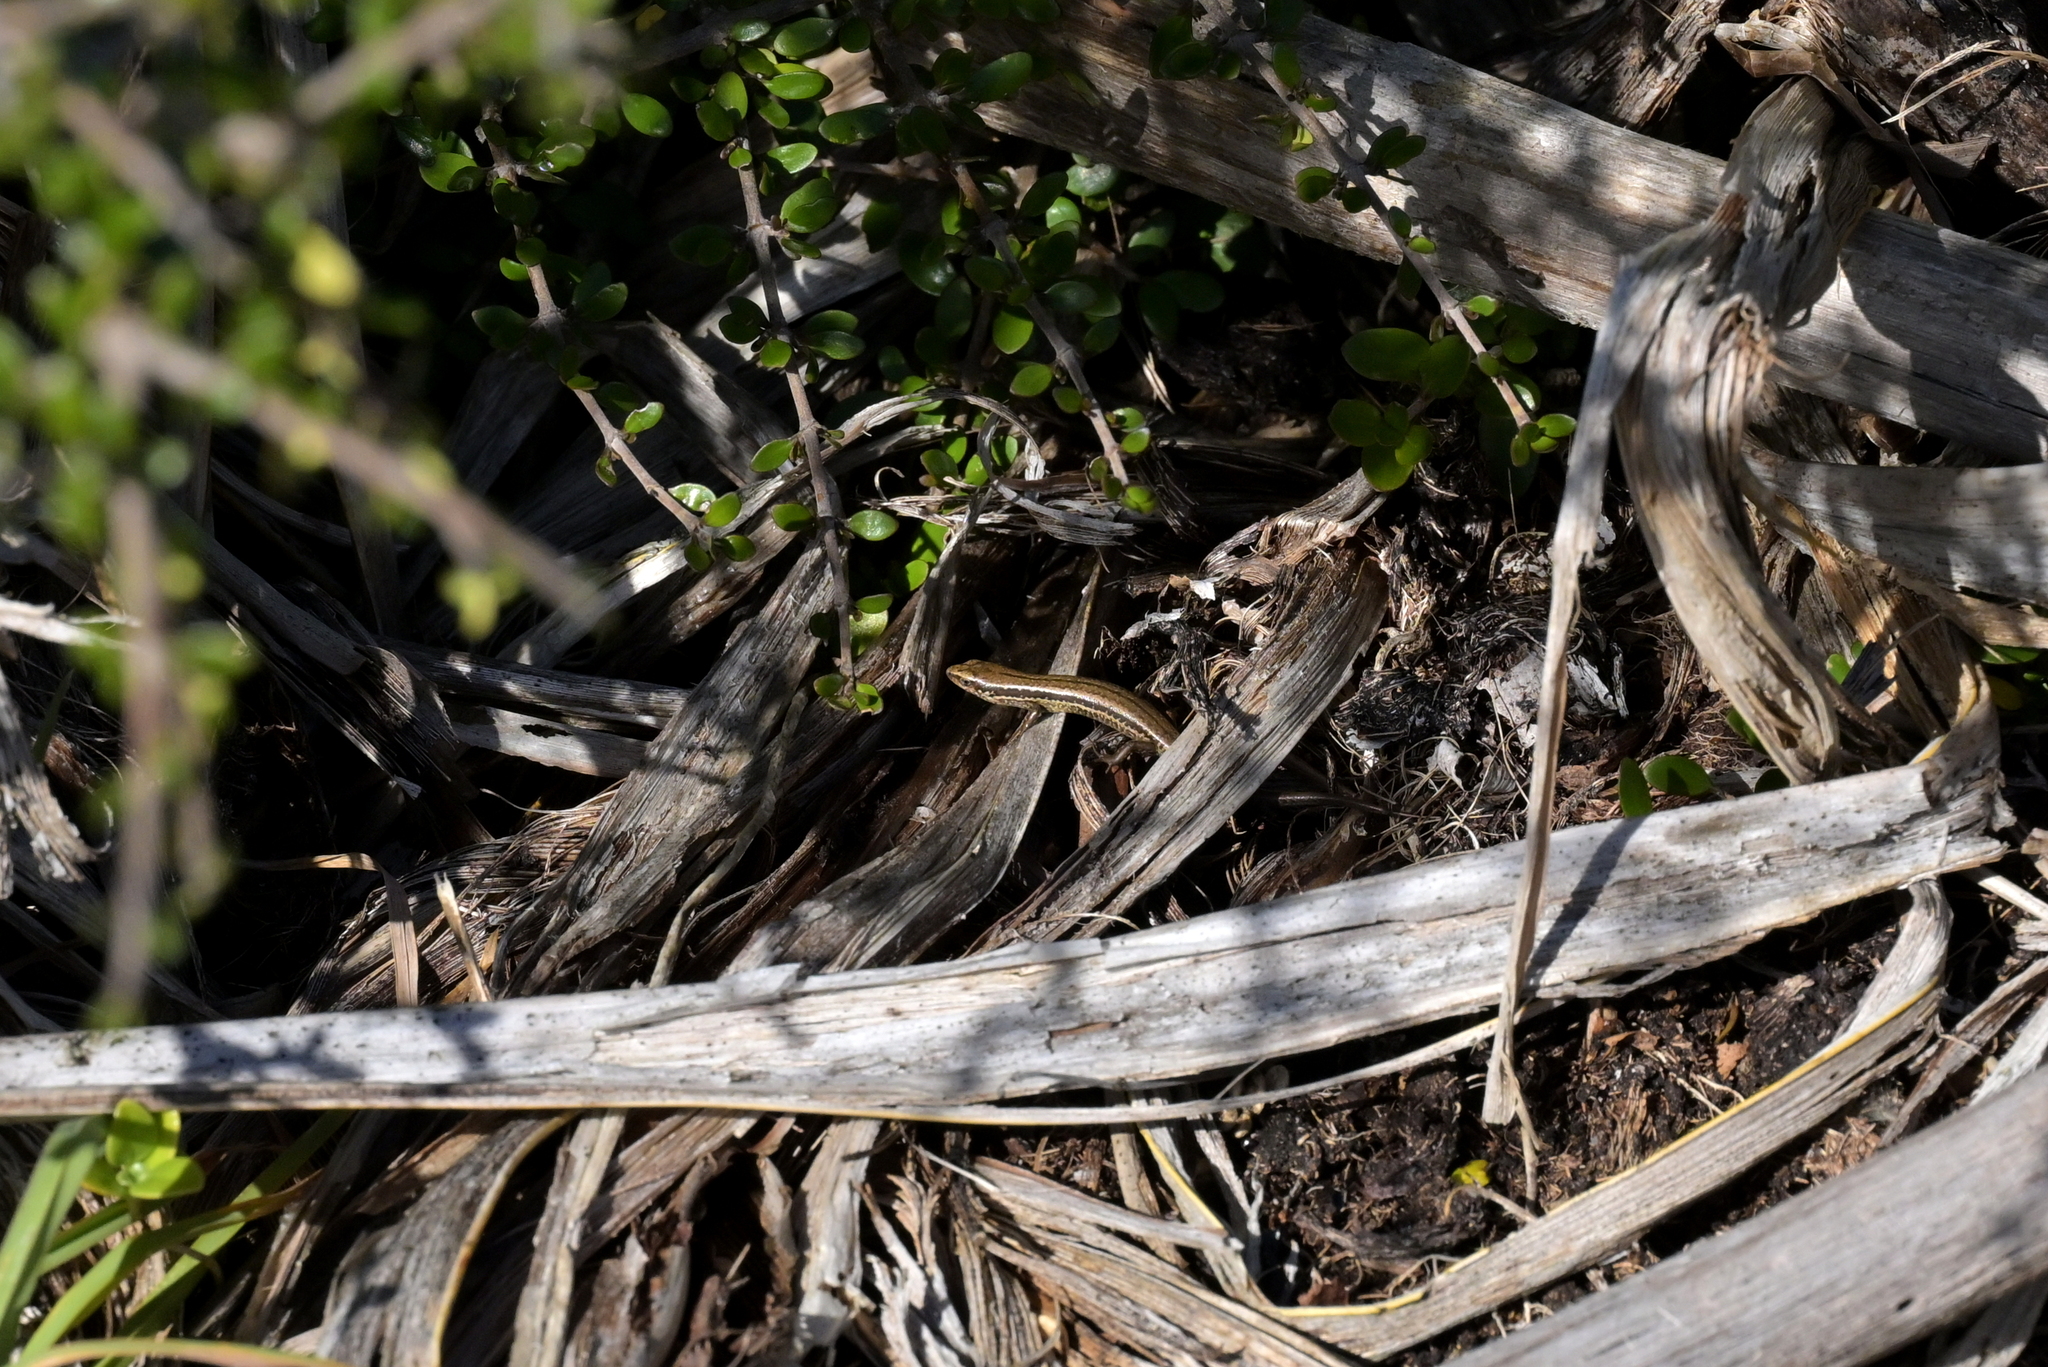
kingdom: Animalia
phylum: Chordata
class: Squamata
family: Scincidae
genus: Oligosoma
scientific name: Oligosoma polychroma
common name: Common new zealand skink
